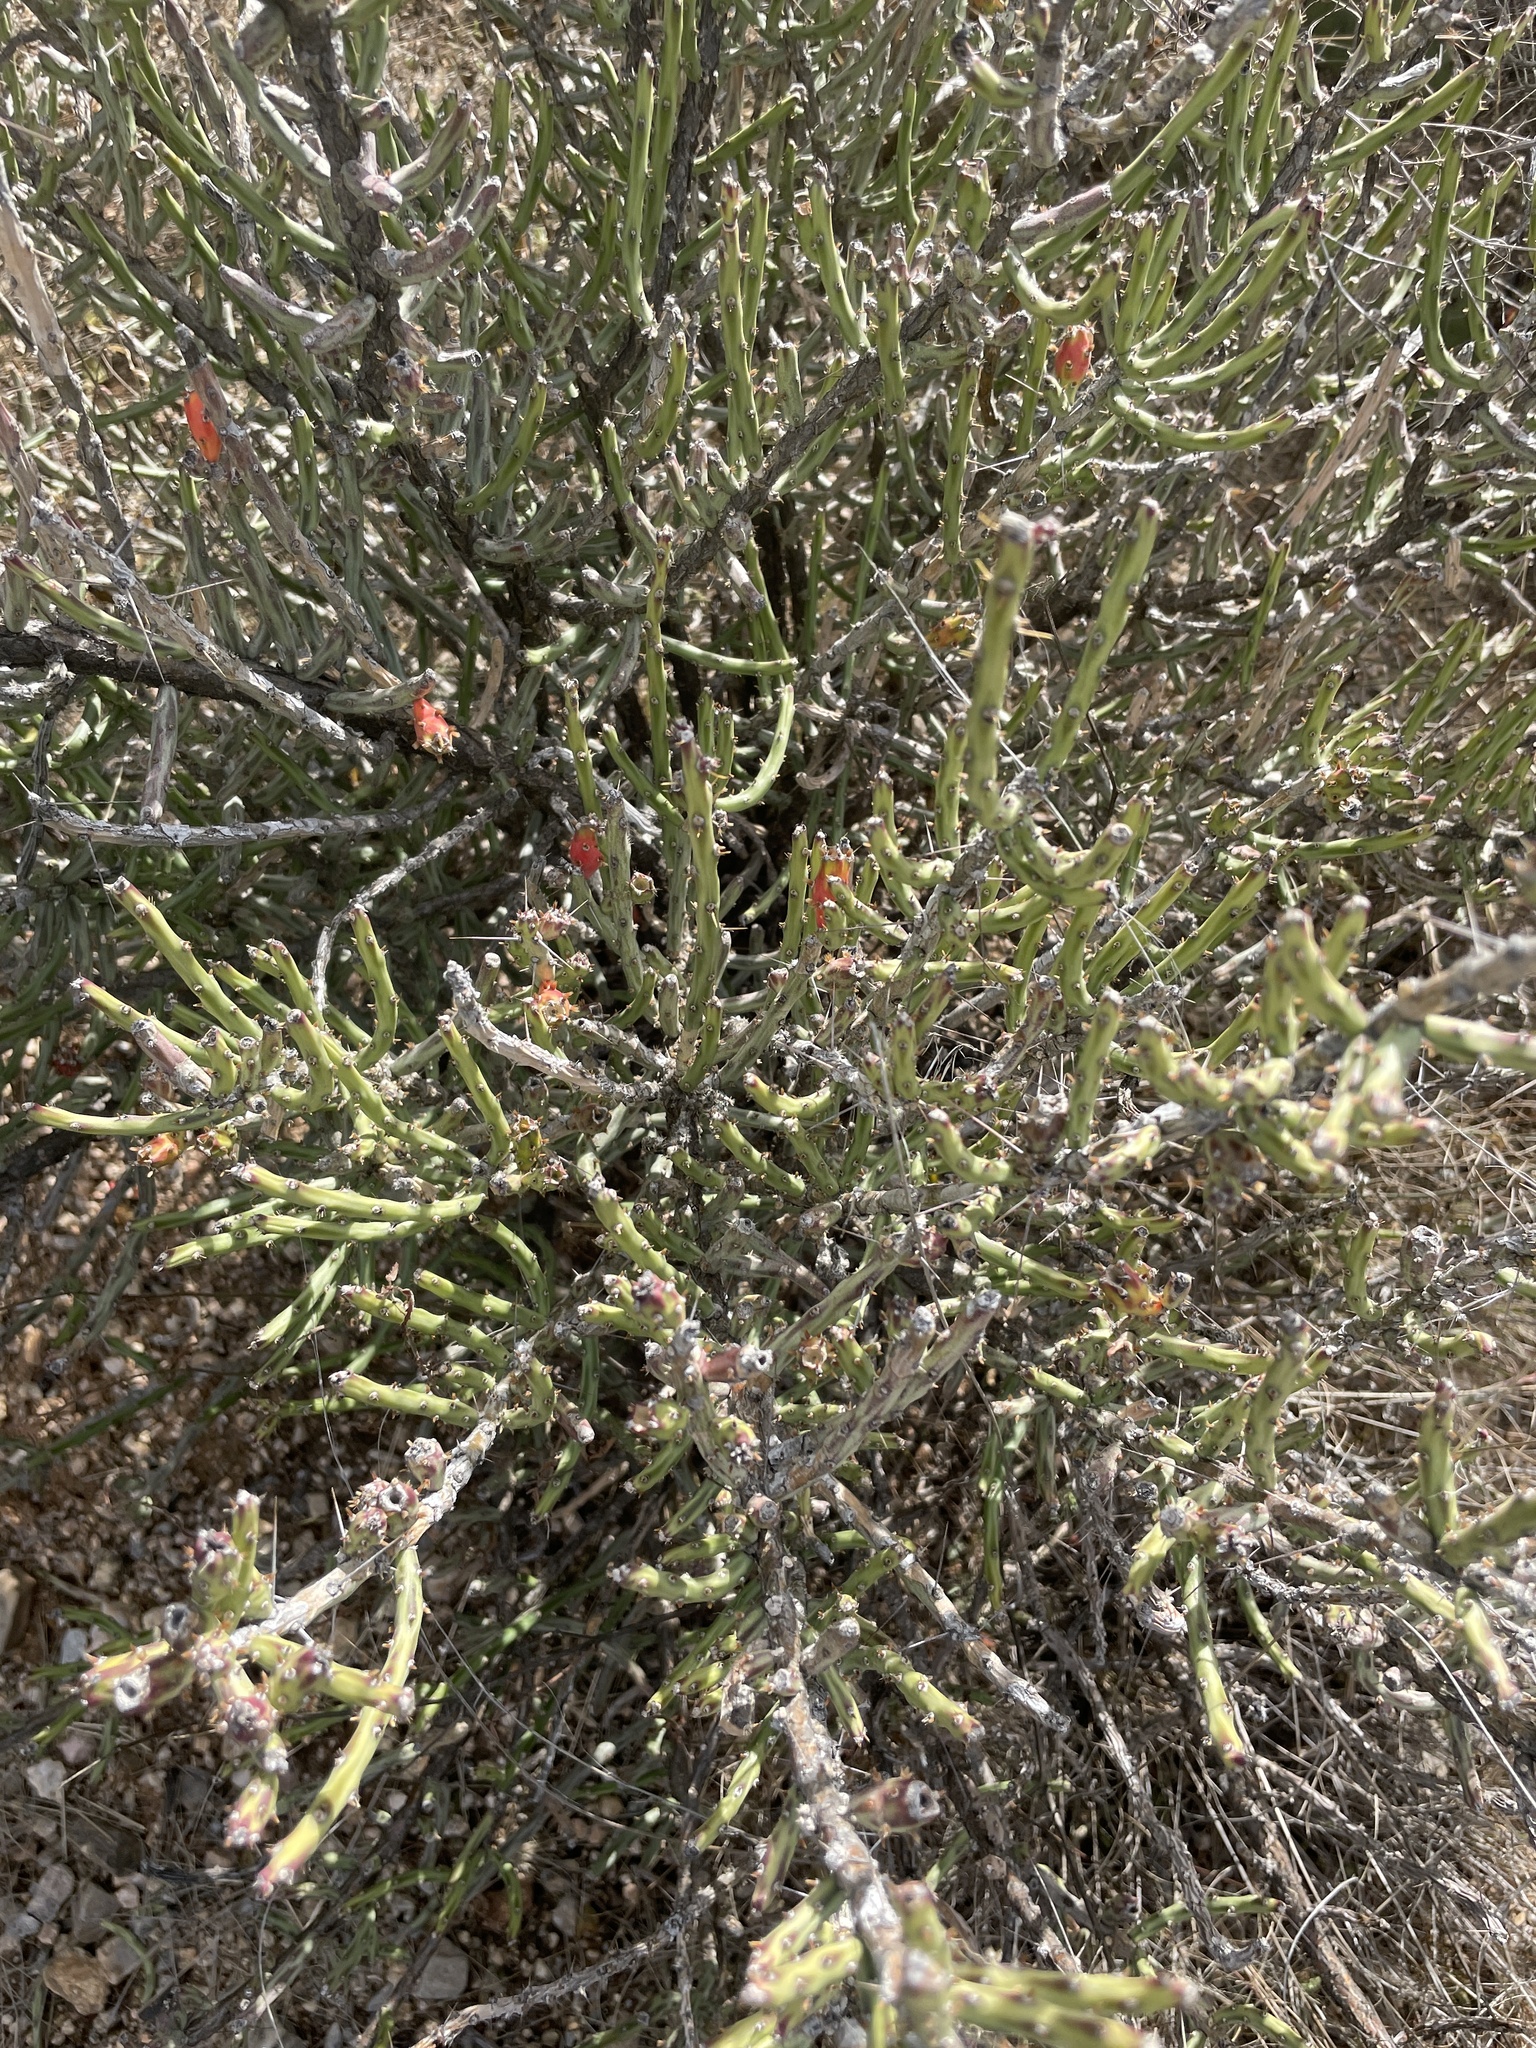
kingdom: Plantae
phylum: Tracheophyta
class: Magnoliopsida
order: Caryophyllales
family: Cactaceae
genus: Cylindropuntia
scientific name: Cylindropuntia leptocaulis
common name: Christmas cactus
